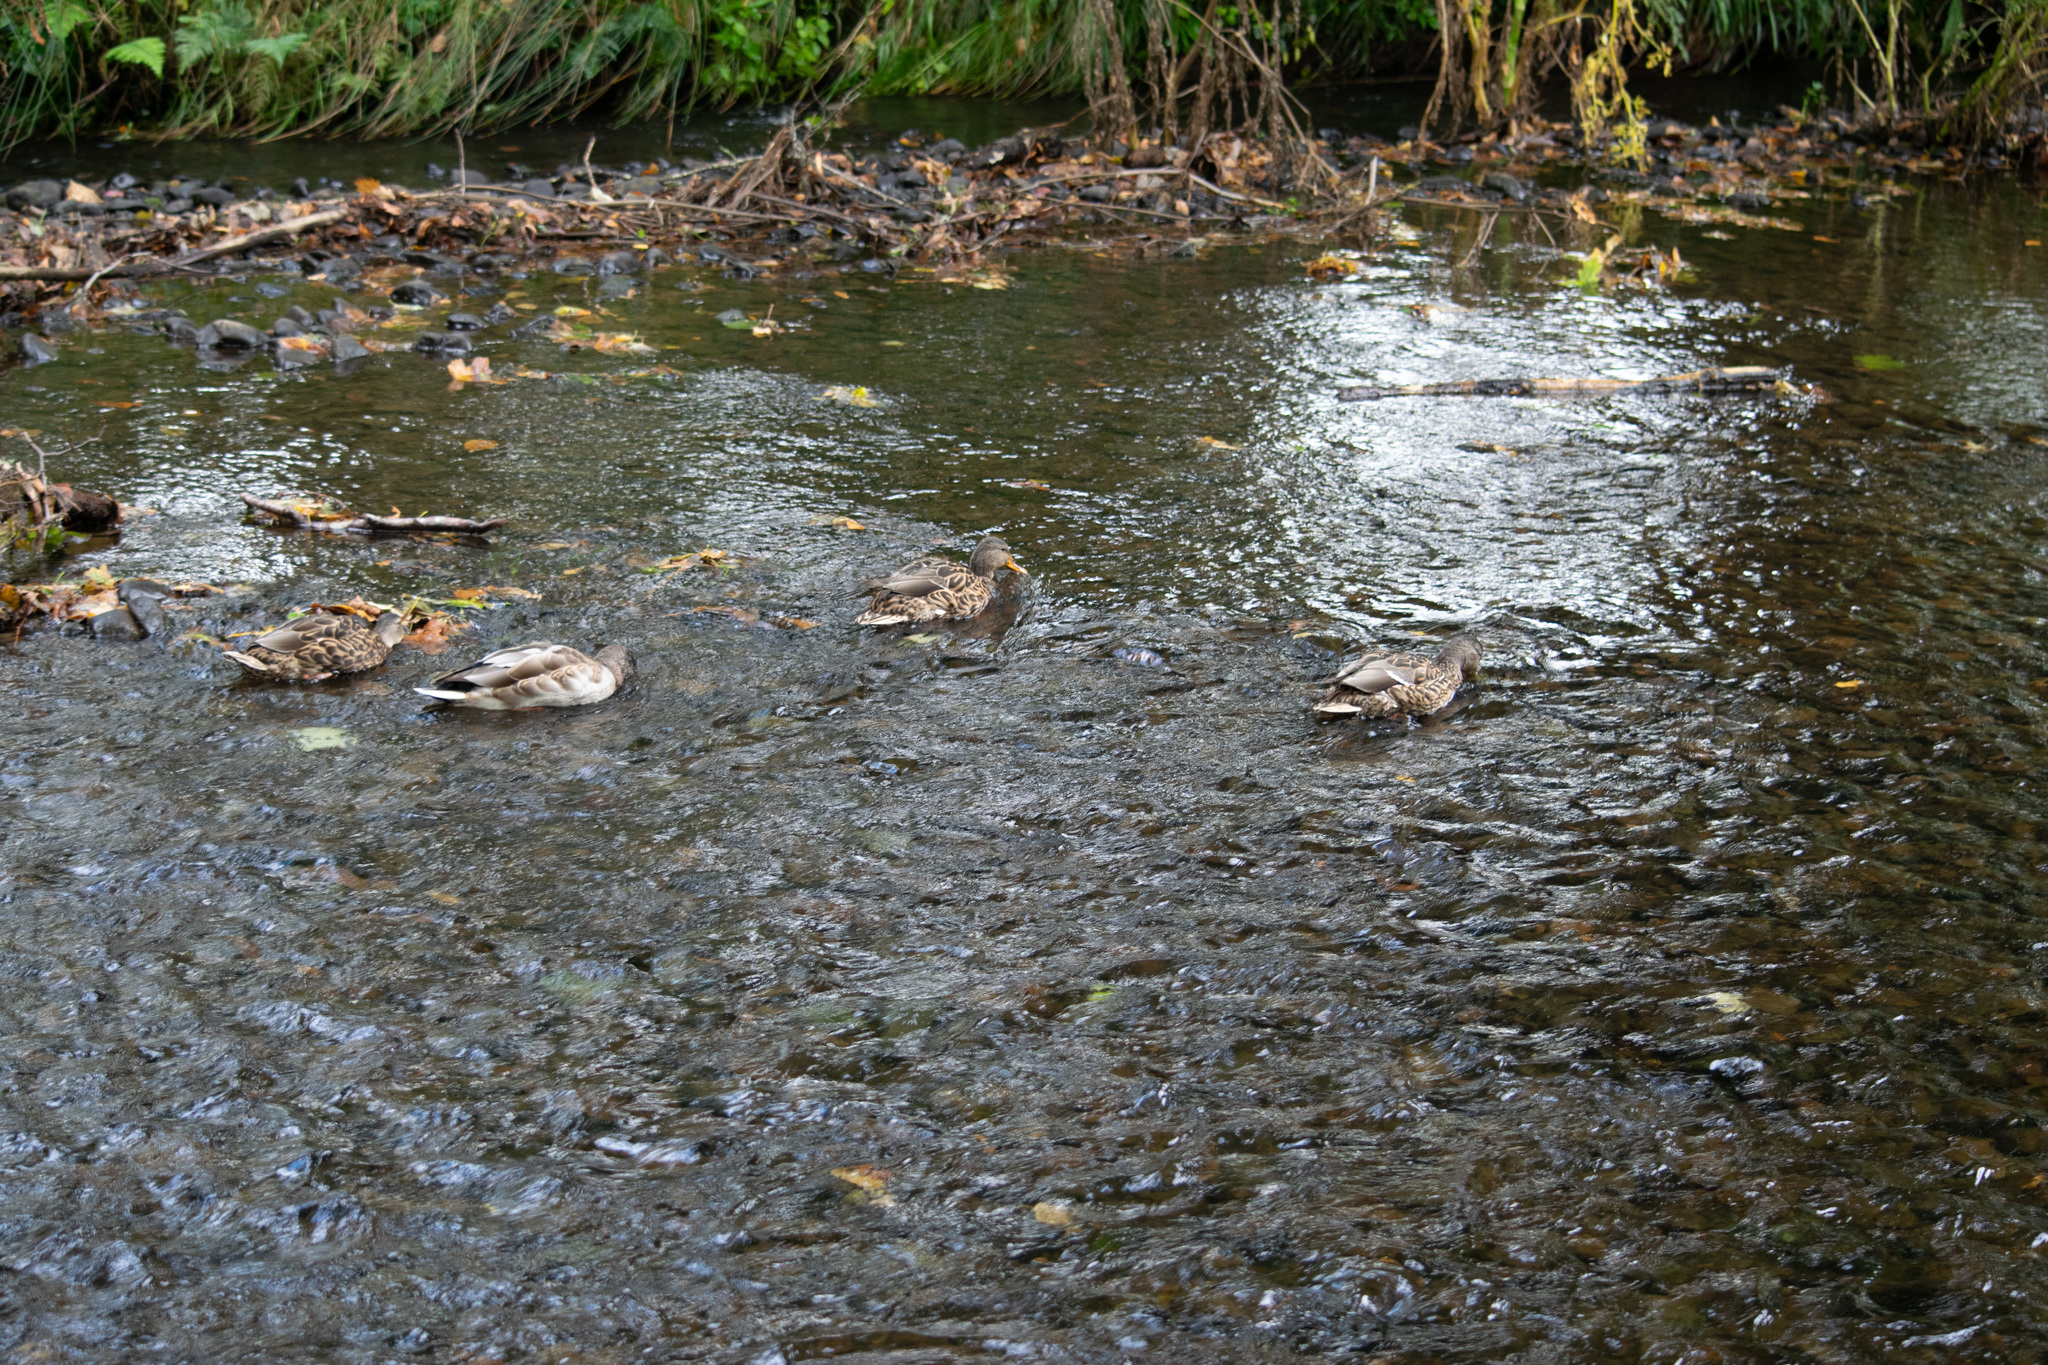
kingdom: Animalia
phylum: Chordata
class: Aves
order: Anseriformes
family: Anatidae
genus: Anas
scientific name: Anas platyrhynchos
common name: Mallard
